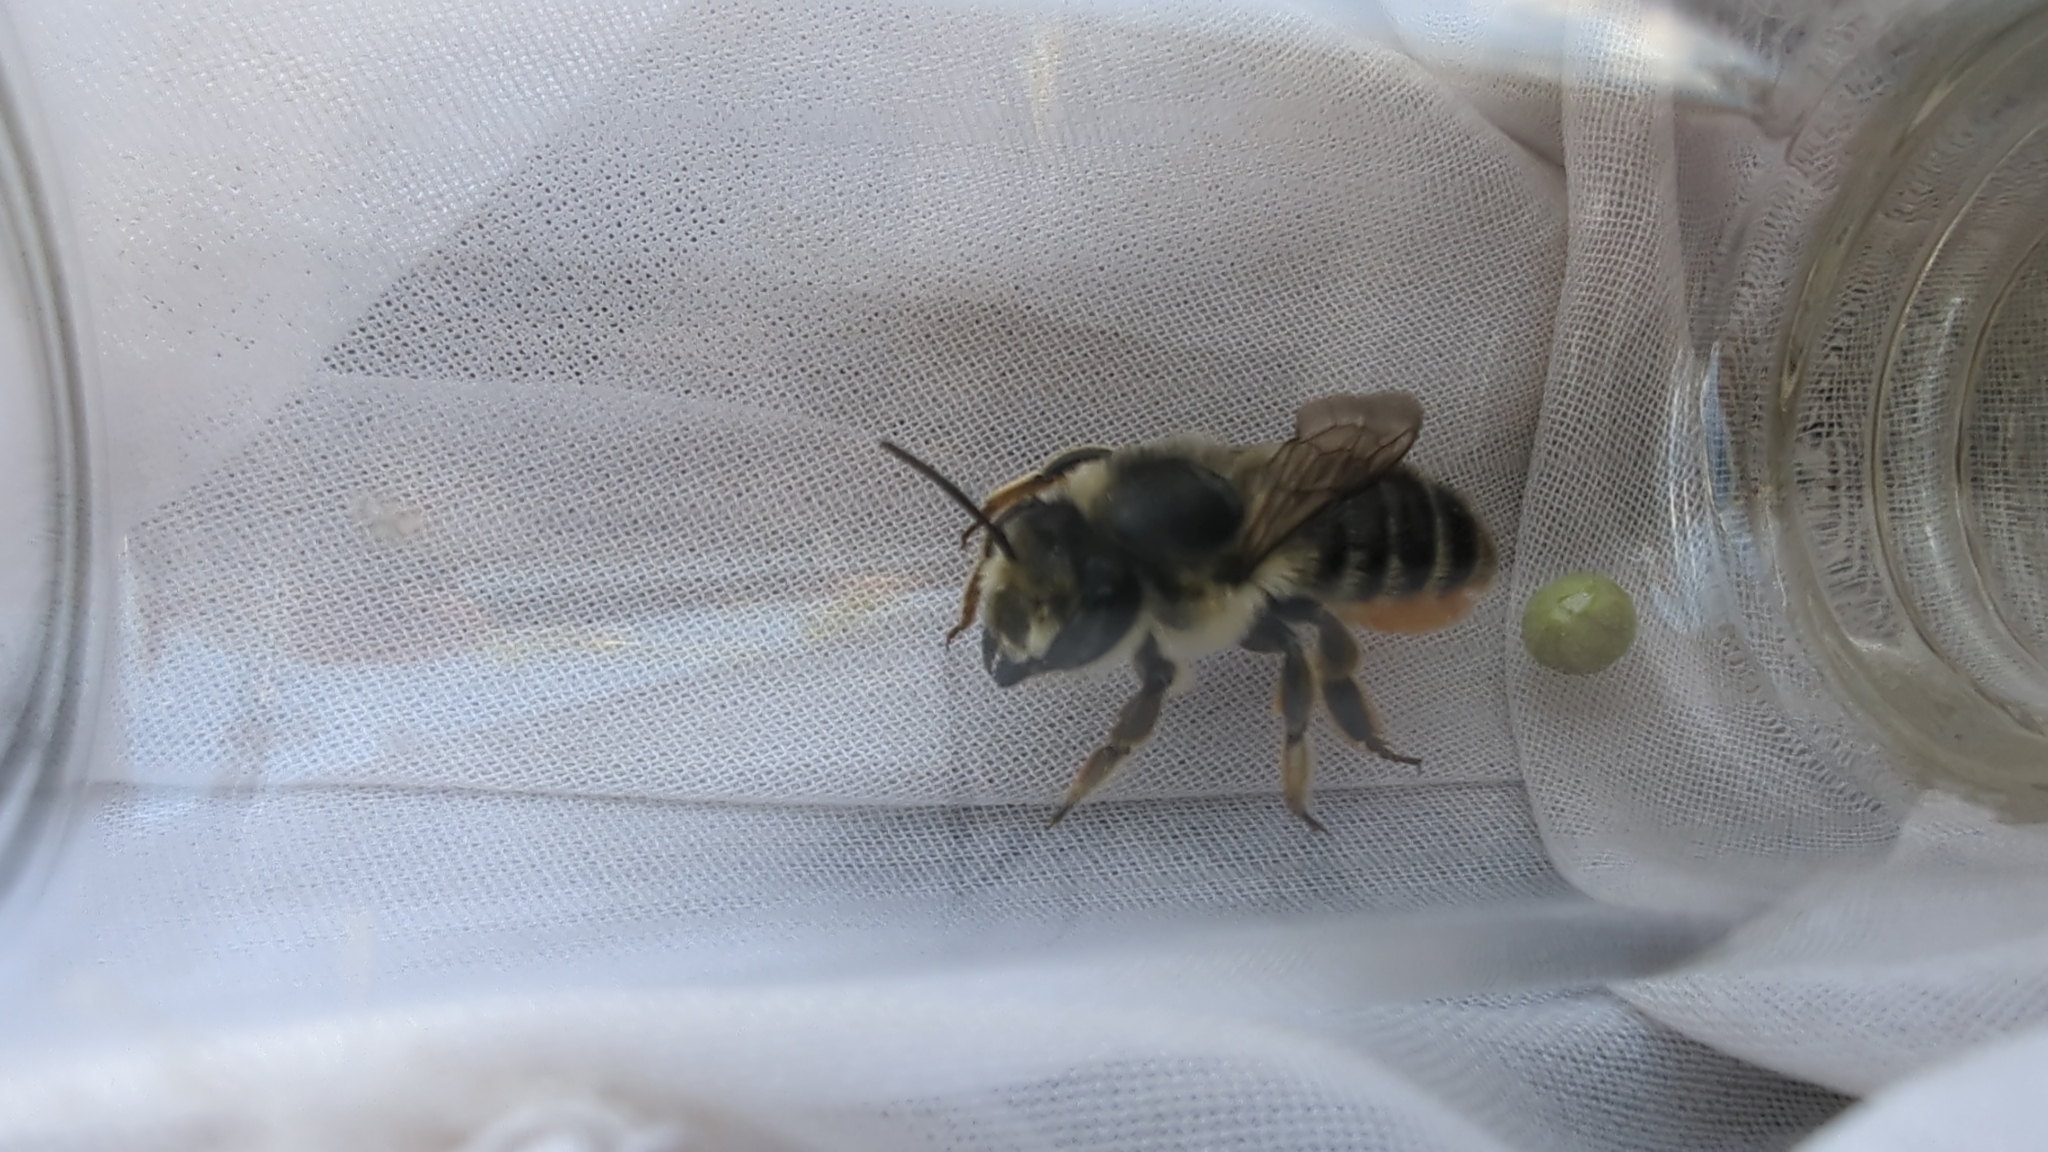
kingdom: Animalia
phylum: Arthropoda
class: Insecta
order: Hymenoptera
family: Megachilidae
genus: Megachile
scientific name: Megachile perihirta
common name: Western leafcutter
